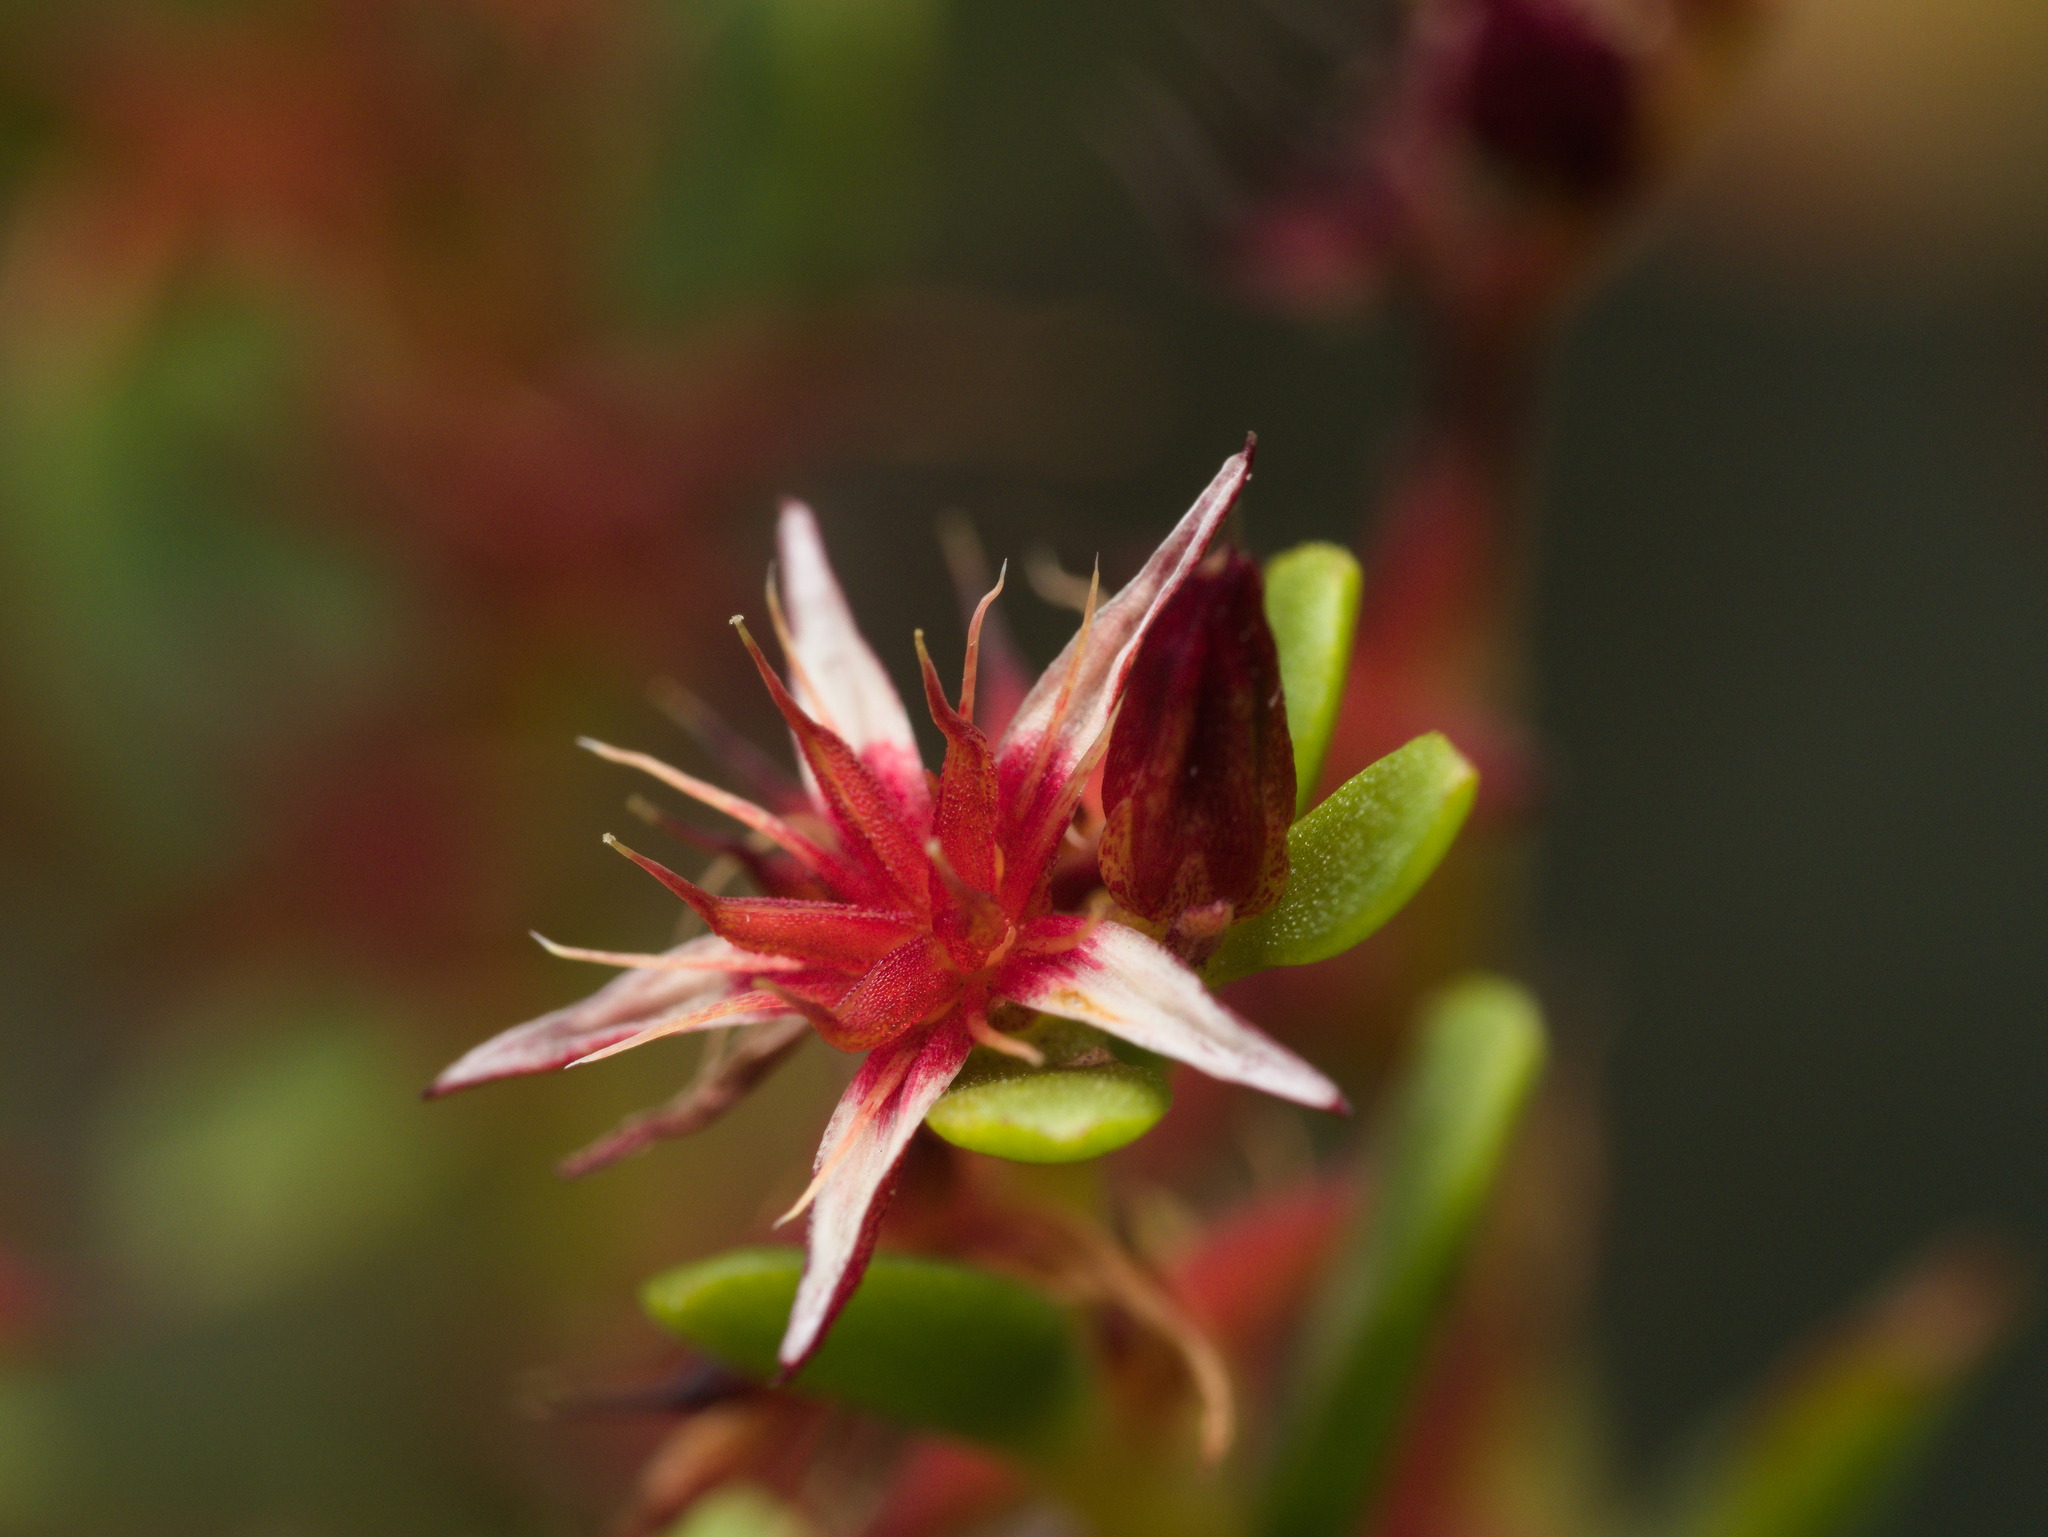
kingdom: Plantae
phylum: Tracheophyta
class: Magnoliopsida
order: Saxifragales
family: Crassulaceae
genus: Sedum
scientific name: Sedum oxypetalum
